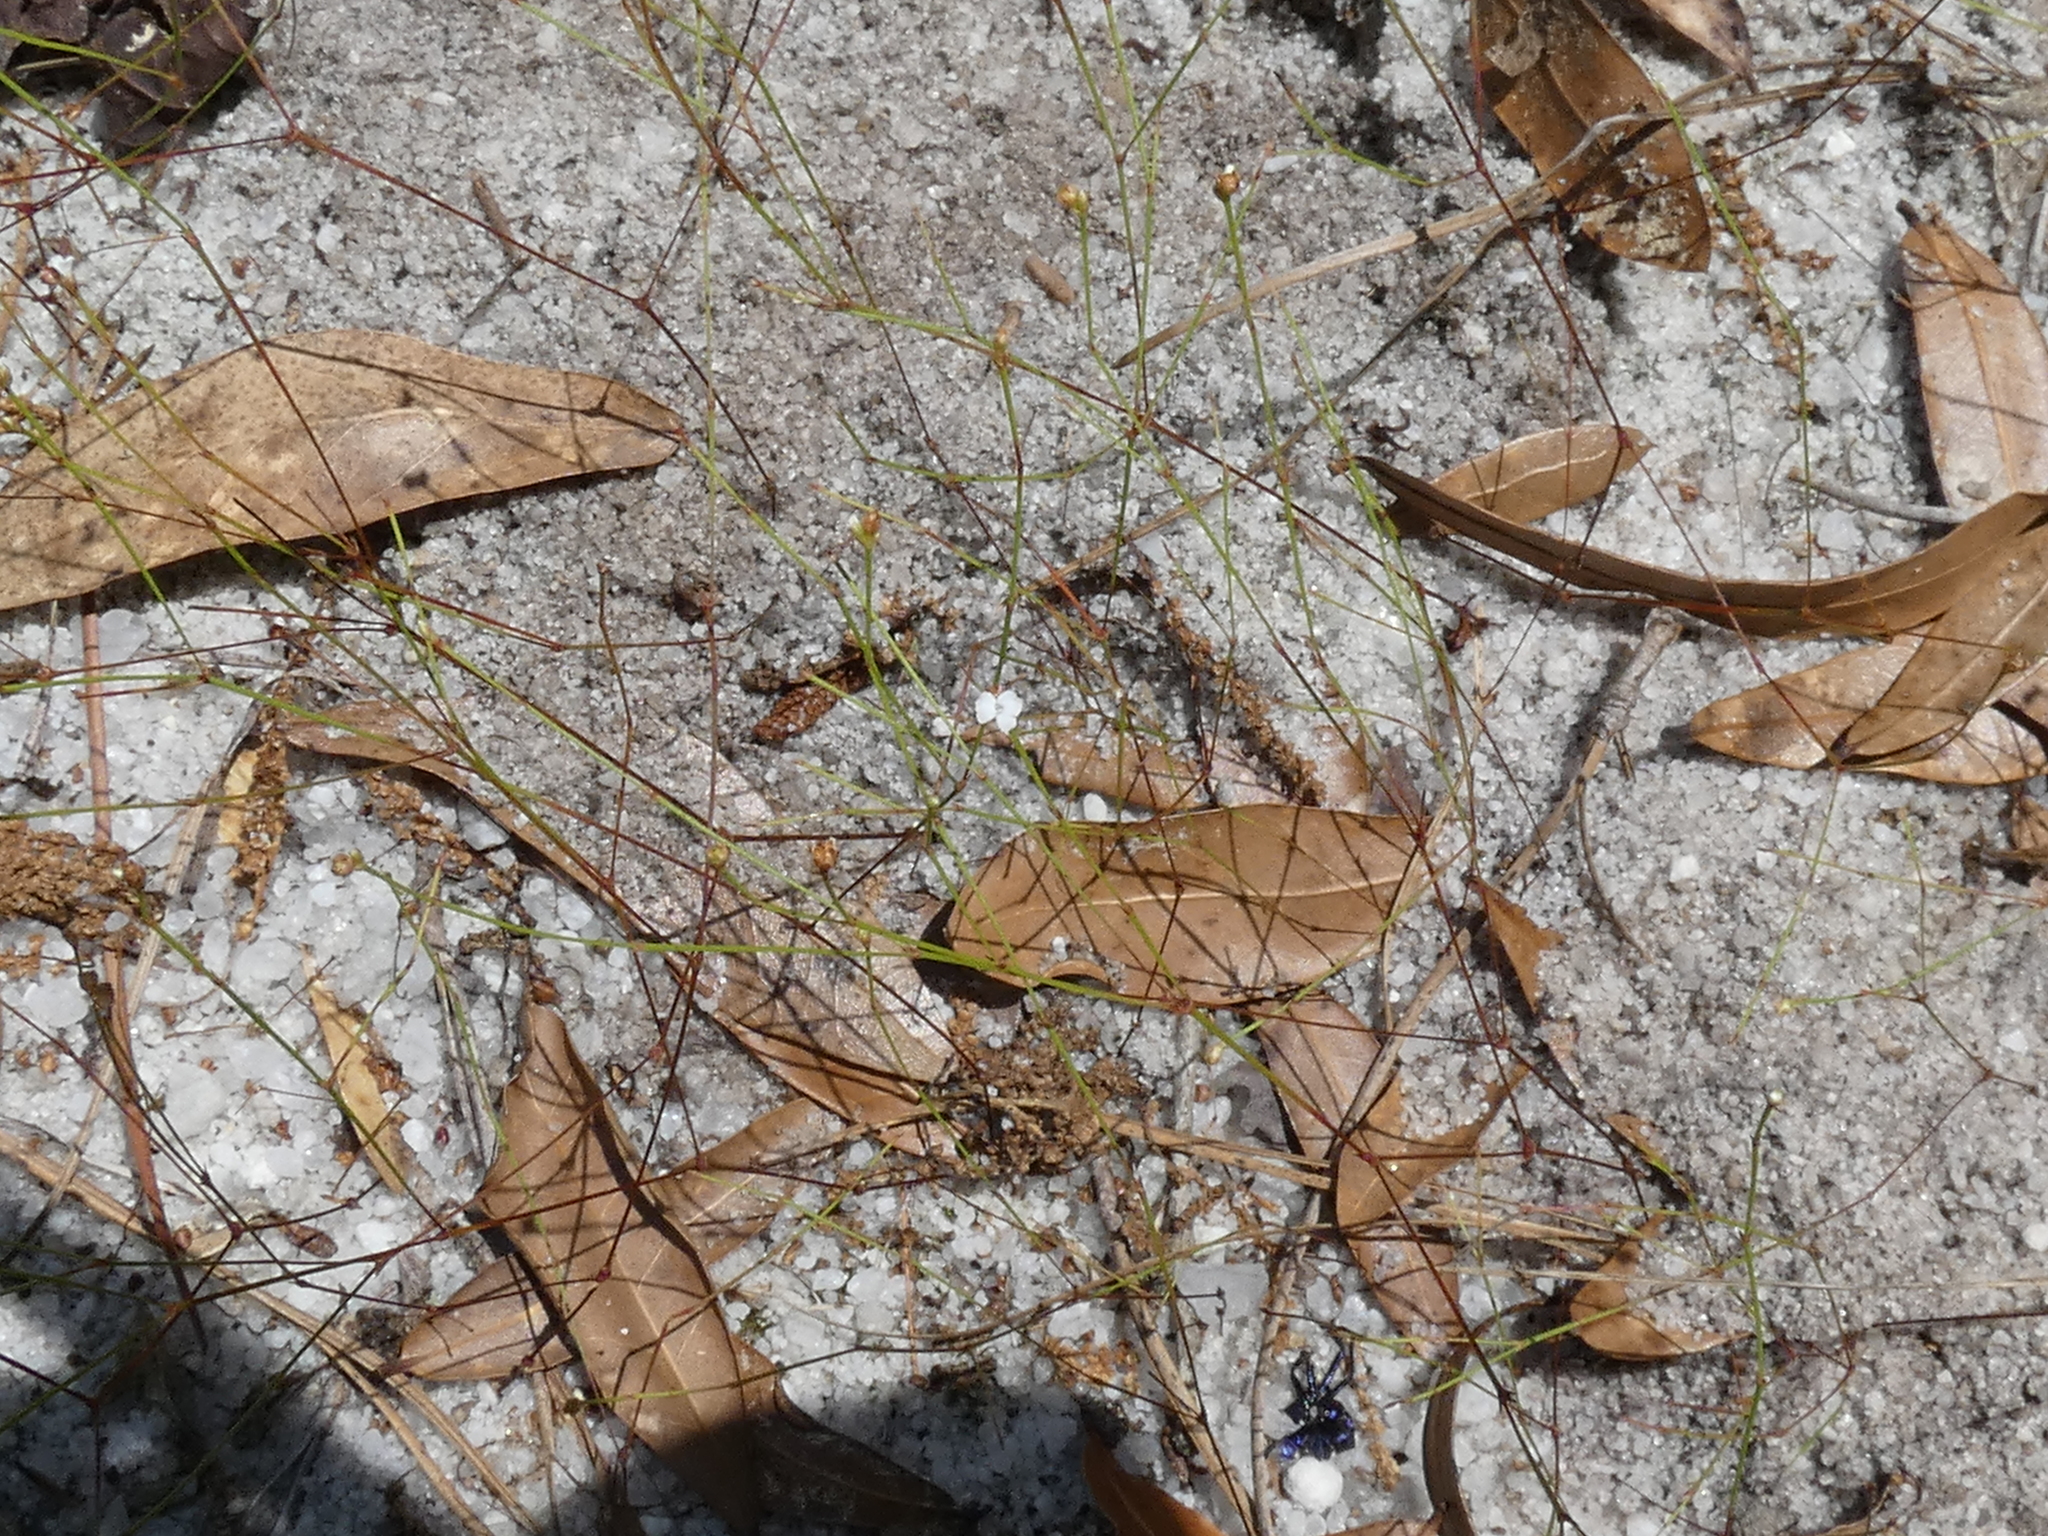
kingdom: Plantae
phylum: Tracheophyta
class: Magnoliopsida
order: Caryophyllales
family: Caryophyllaceae
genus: Stipulicida
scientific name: Stipulicida setacea
